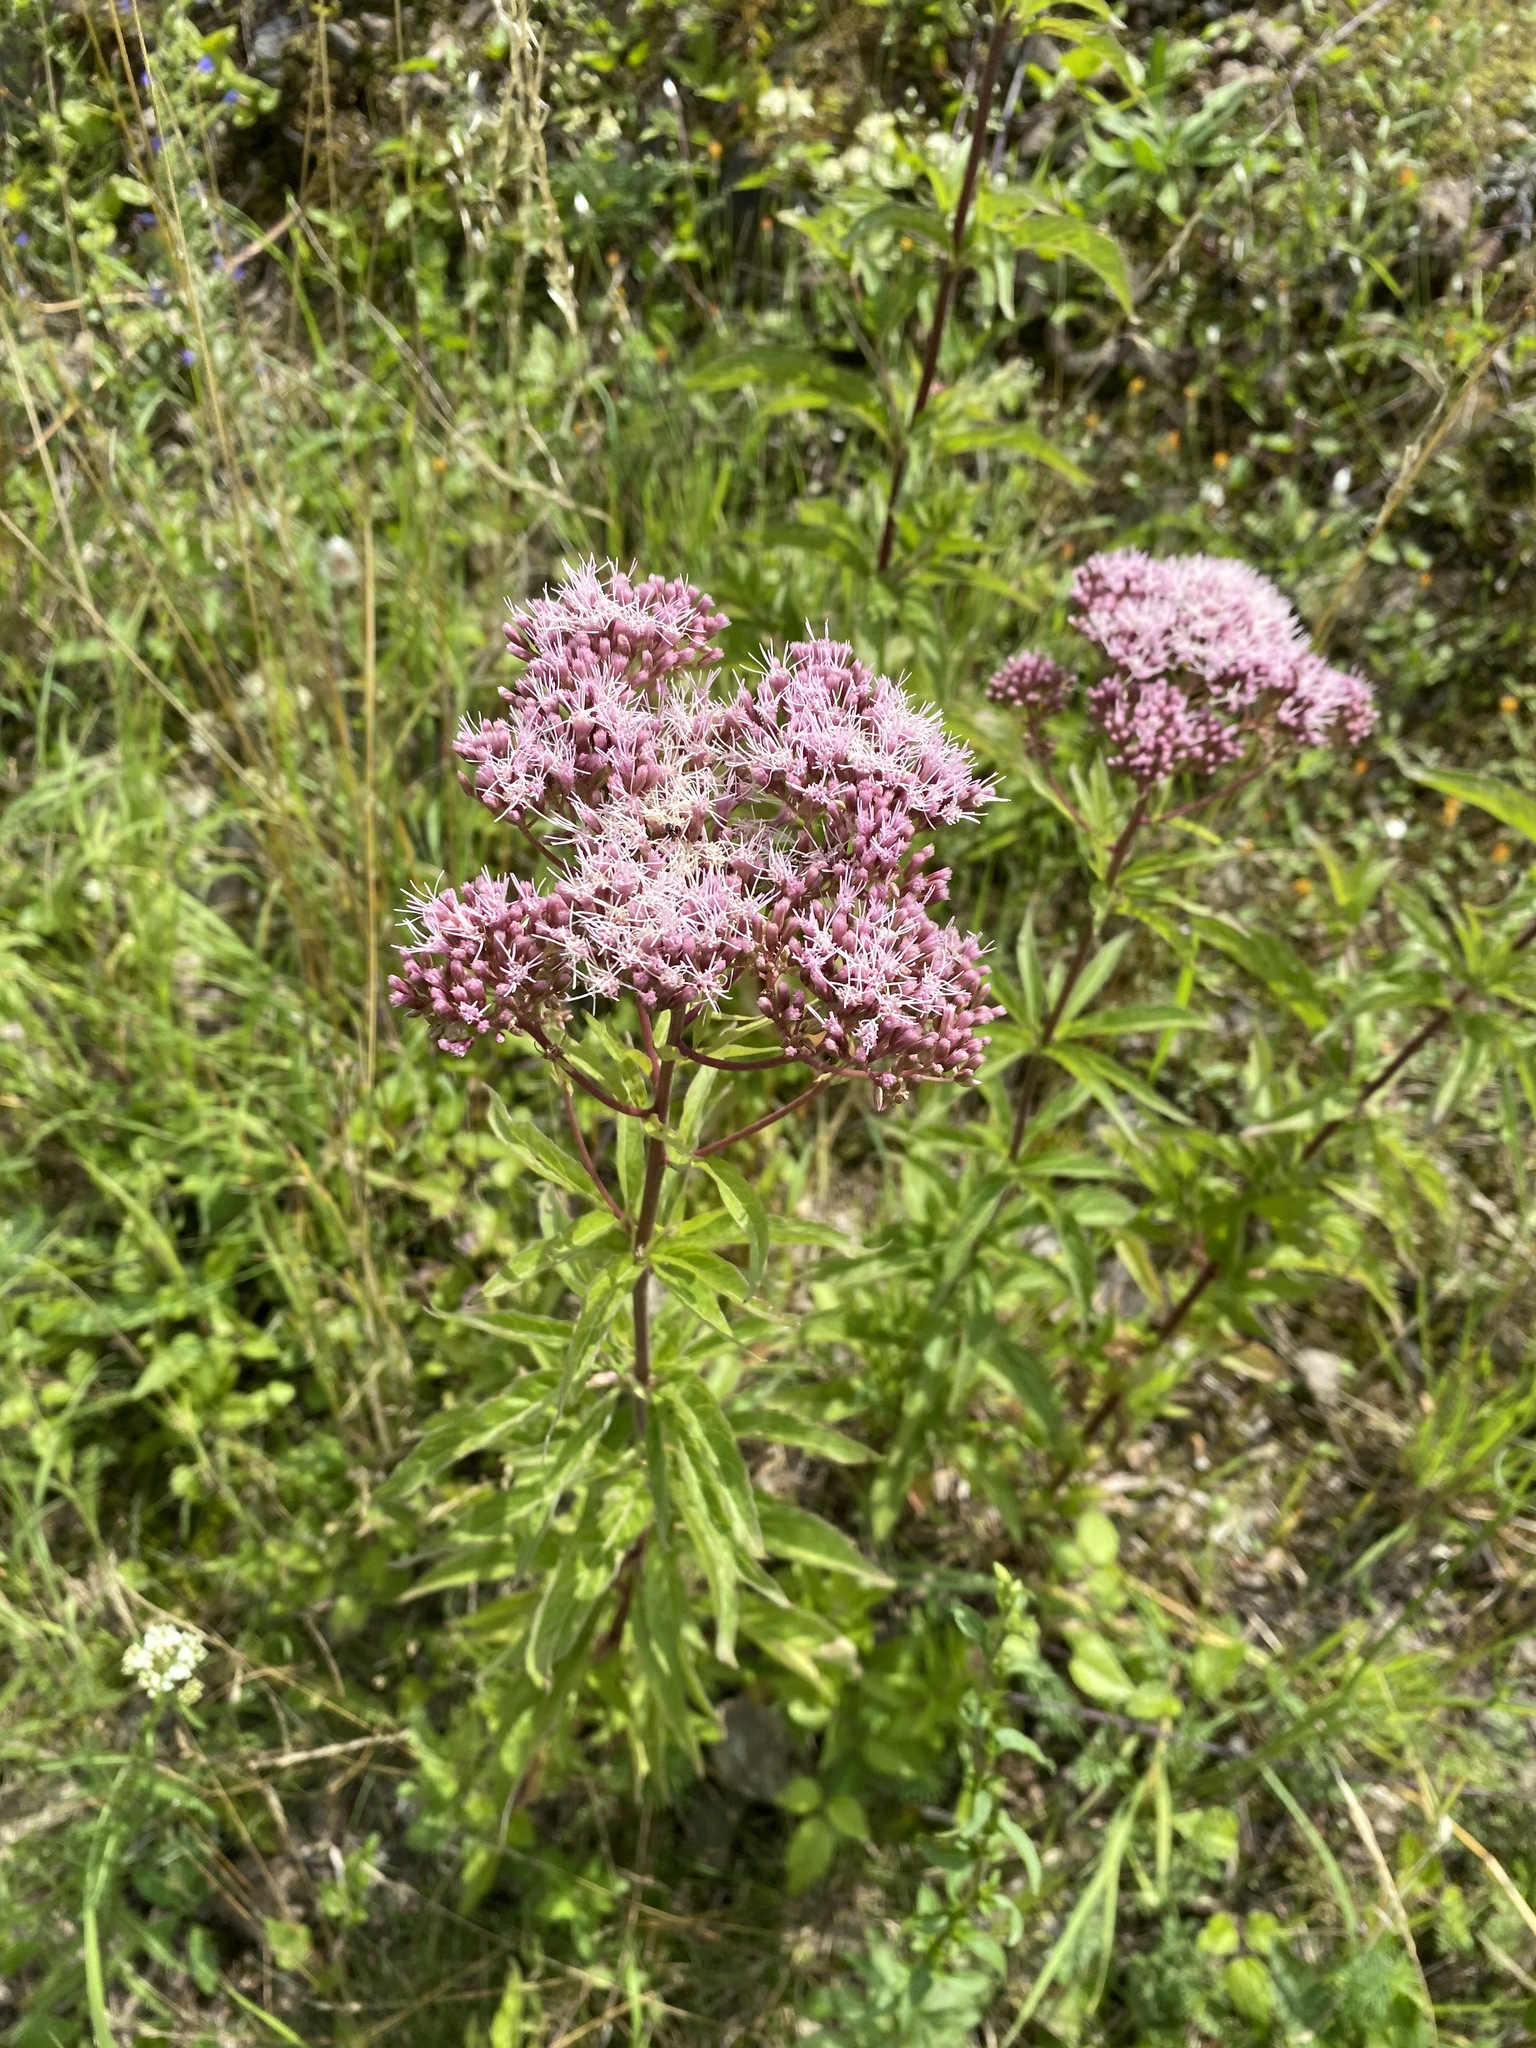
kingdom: Plantae
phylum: Tracheophyta
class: Magnoliopsida
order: Asterales
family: Asteraceae
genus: Eupatorium
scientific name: Eupatorium cannabinum
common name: Hemp-agrimony
